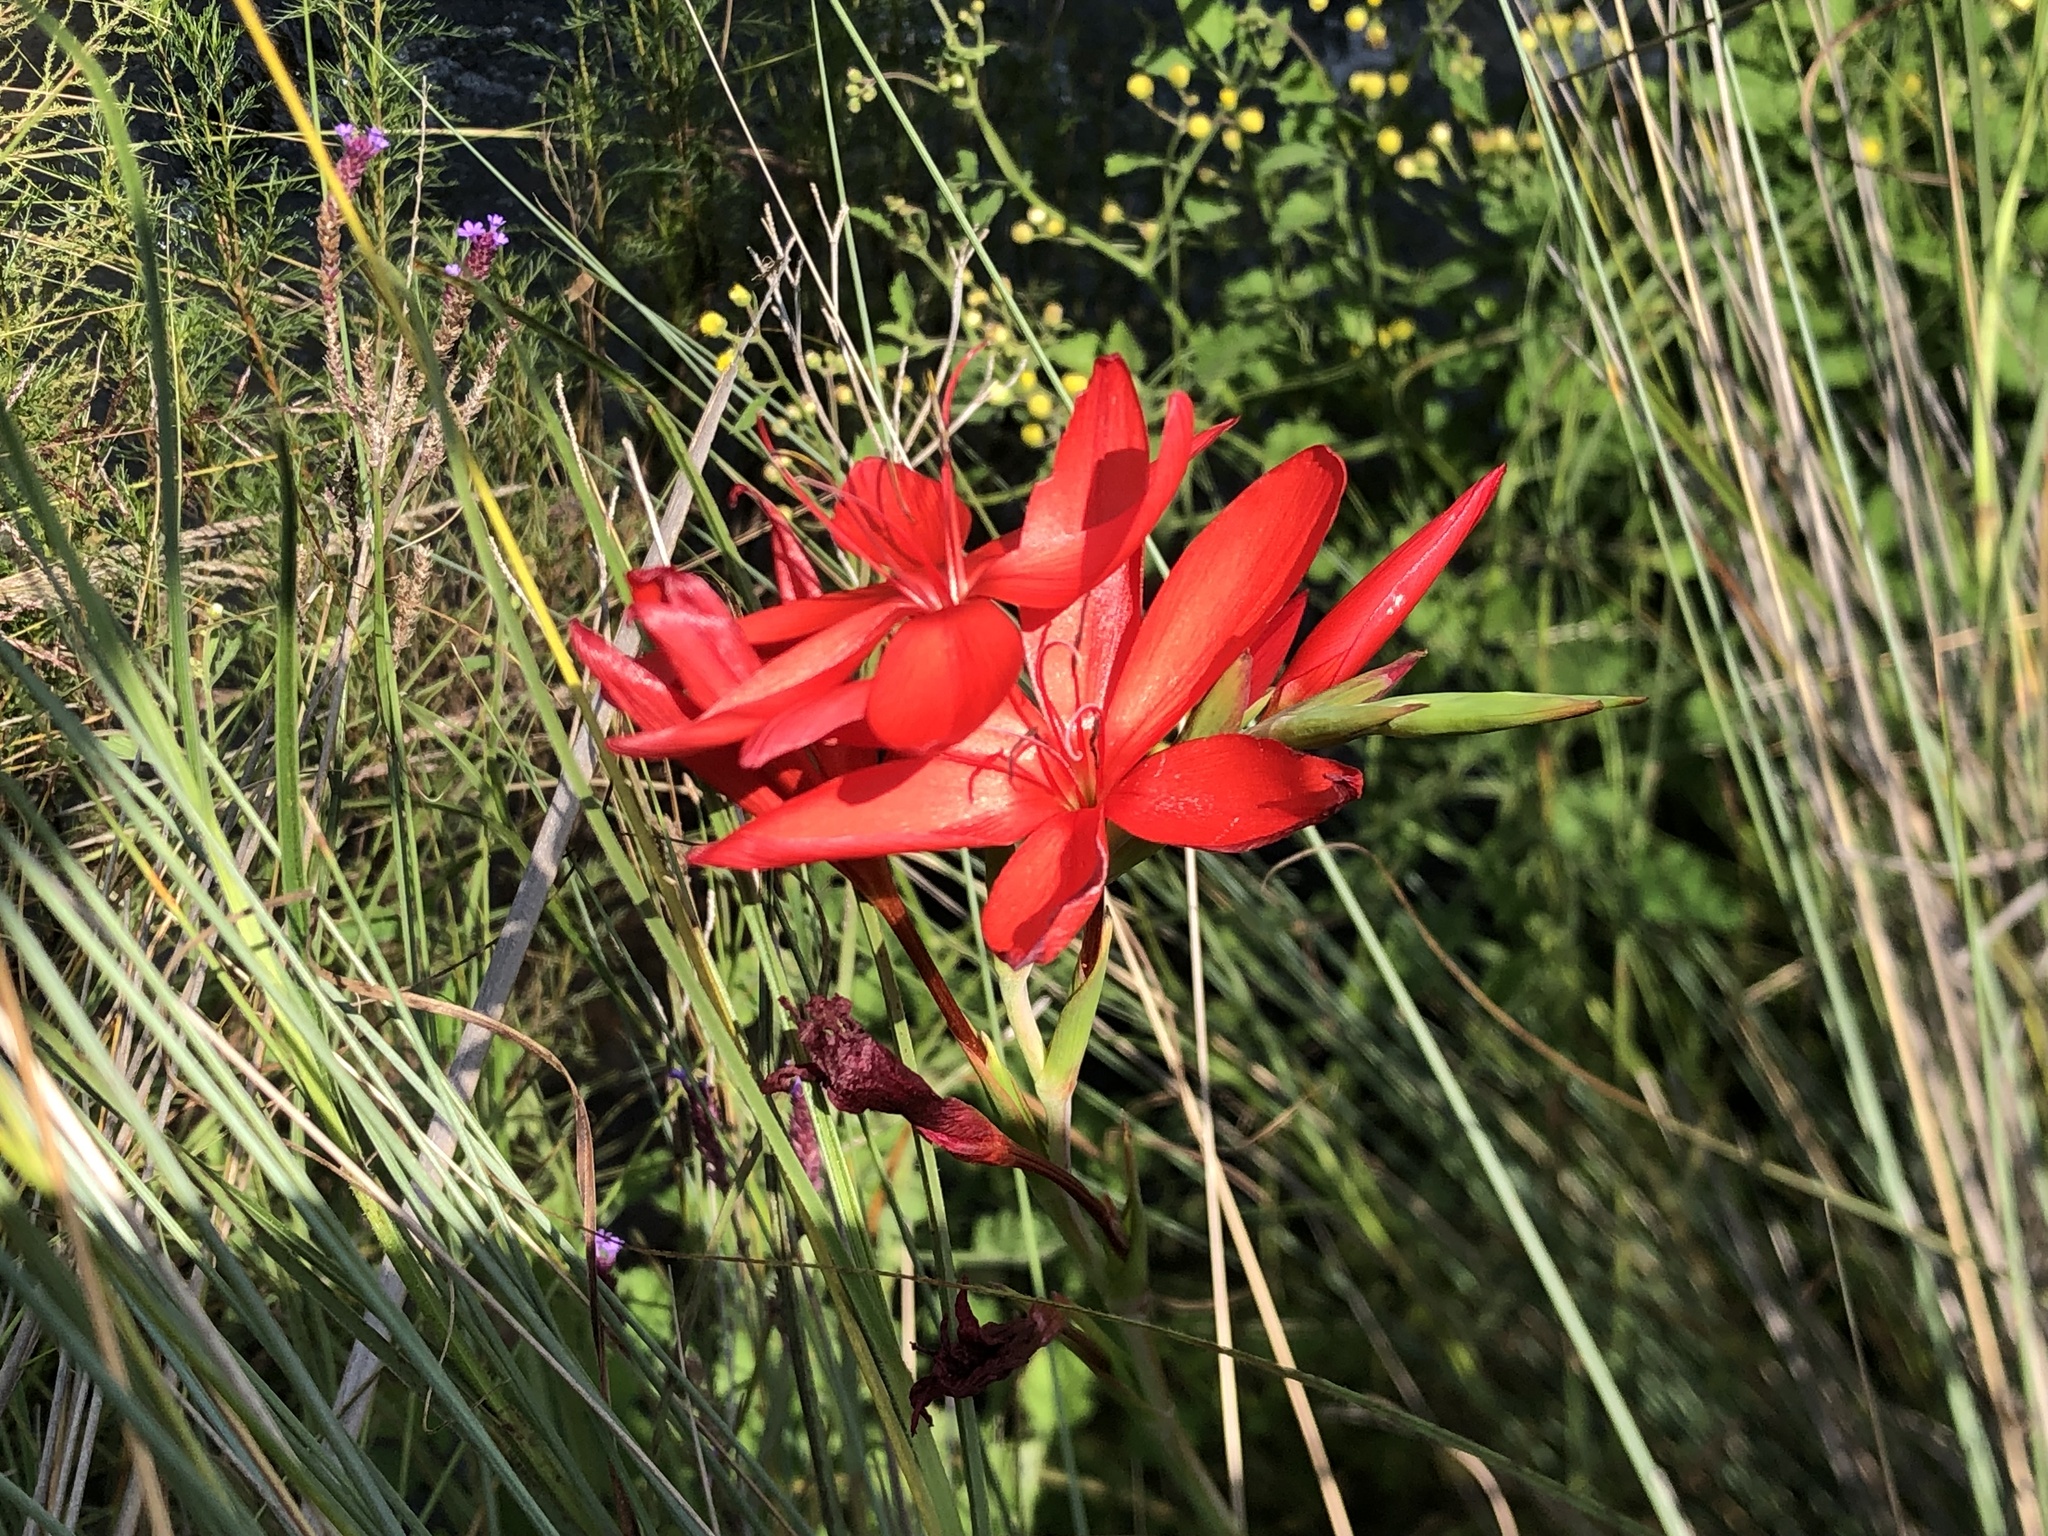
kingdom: Plantae
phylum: Tracheophyta
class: Liliopsida
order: Asparagales
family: Iridaceae
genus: Hesperantha
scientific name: Hesperantha coccinea
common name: River-lily
